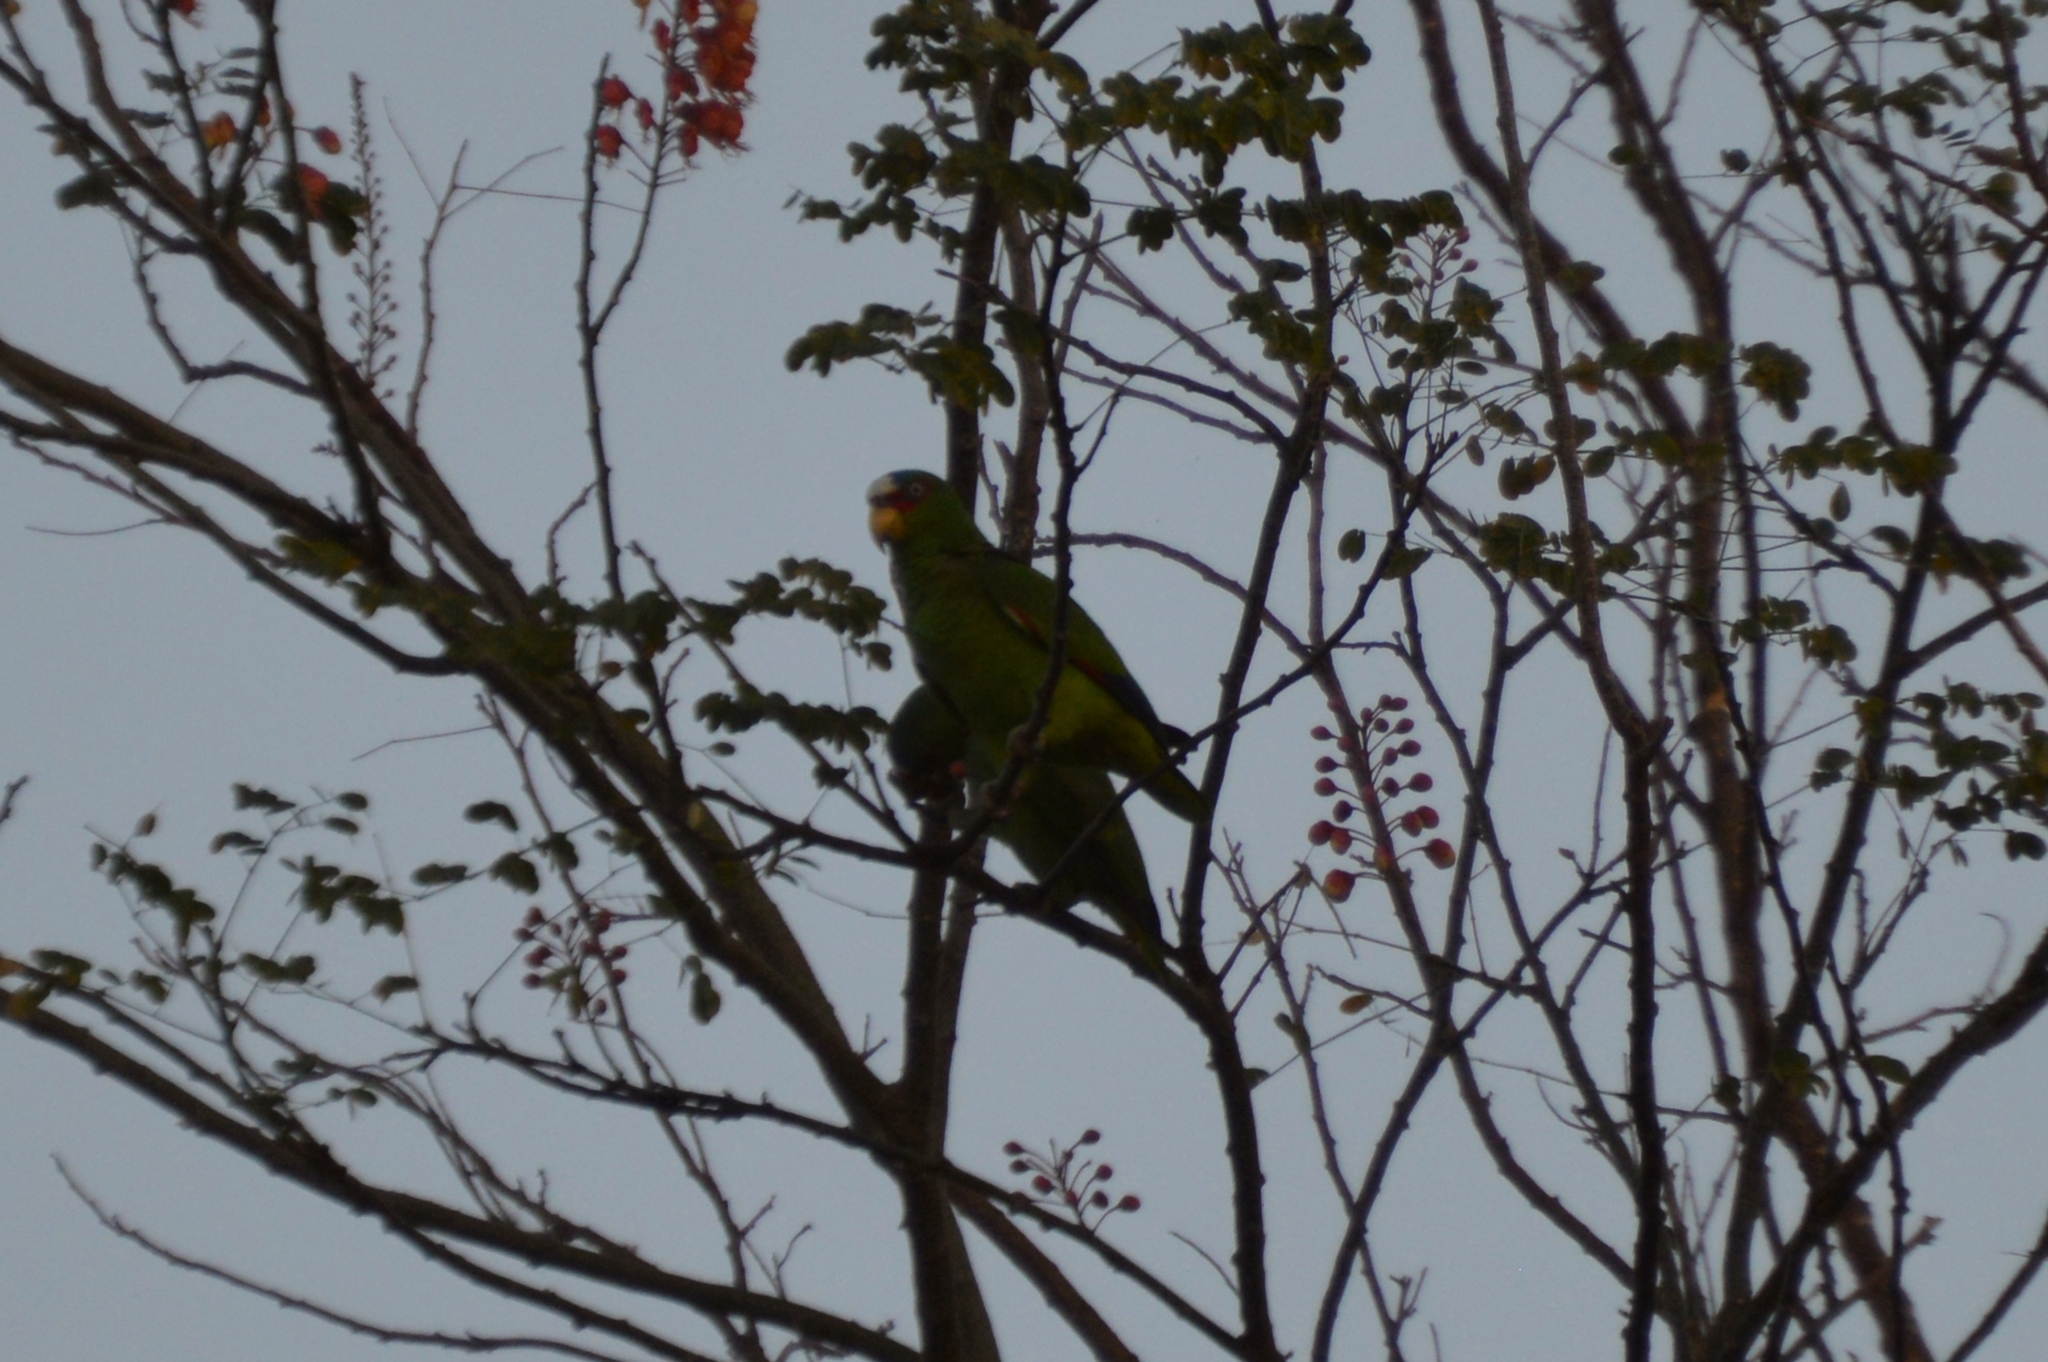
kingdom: Animalia
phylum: Chordata
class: Aves
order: Psittaciformes
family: Psittacidae
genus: Amazona
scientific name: Amazona albifrons
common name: White-fronted amazon
